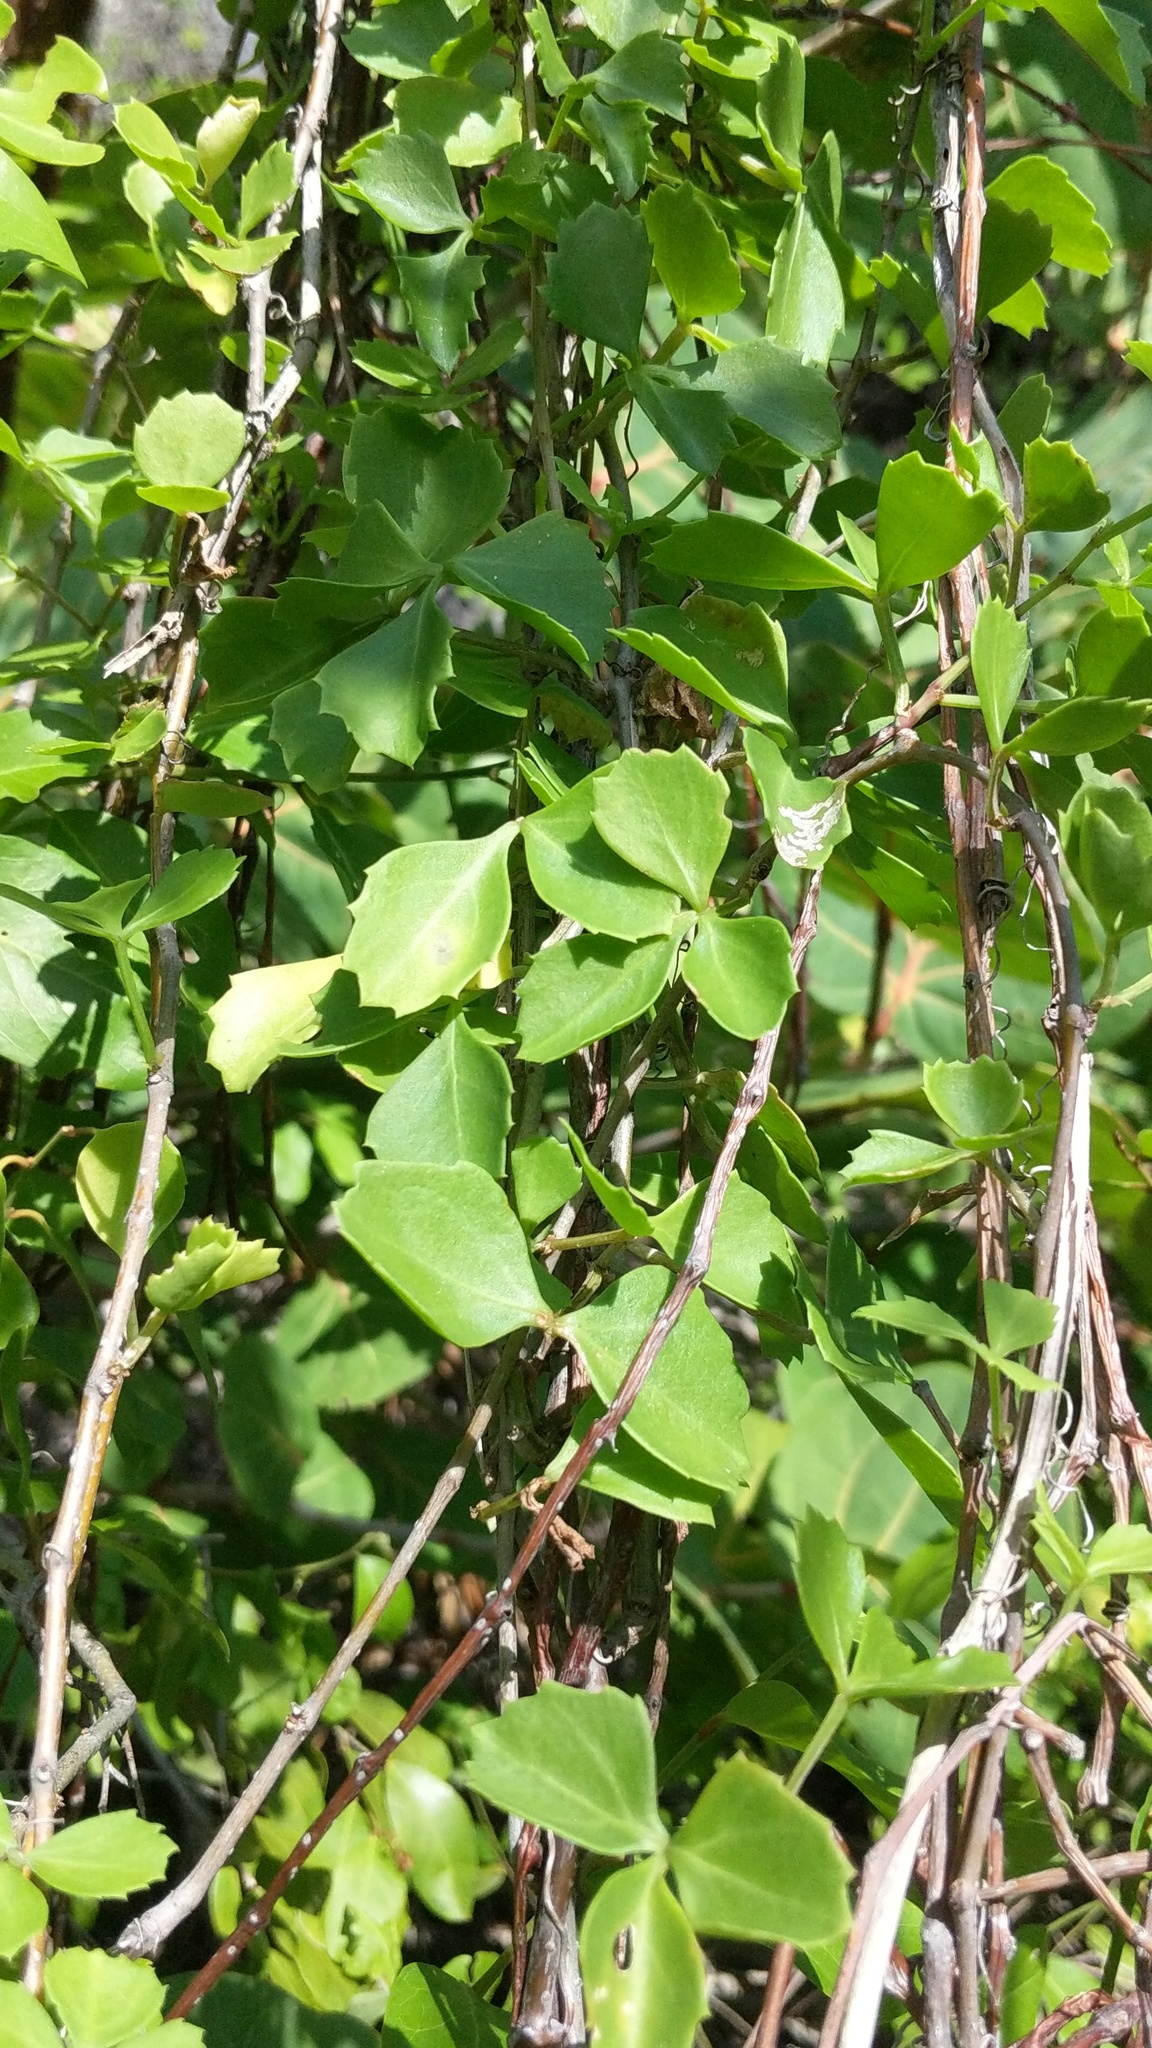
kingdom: Plantae
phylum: Tracheophyta
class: Magnoliopsida
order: Vitales
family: Vitaceae
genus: Cissus
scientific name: Cissus trifoliata
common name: Vine-sorrel
